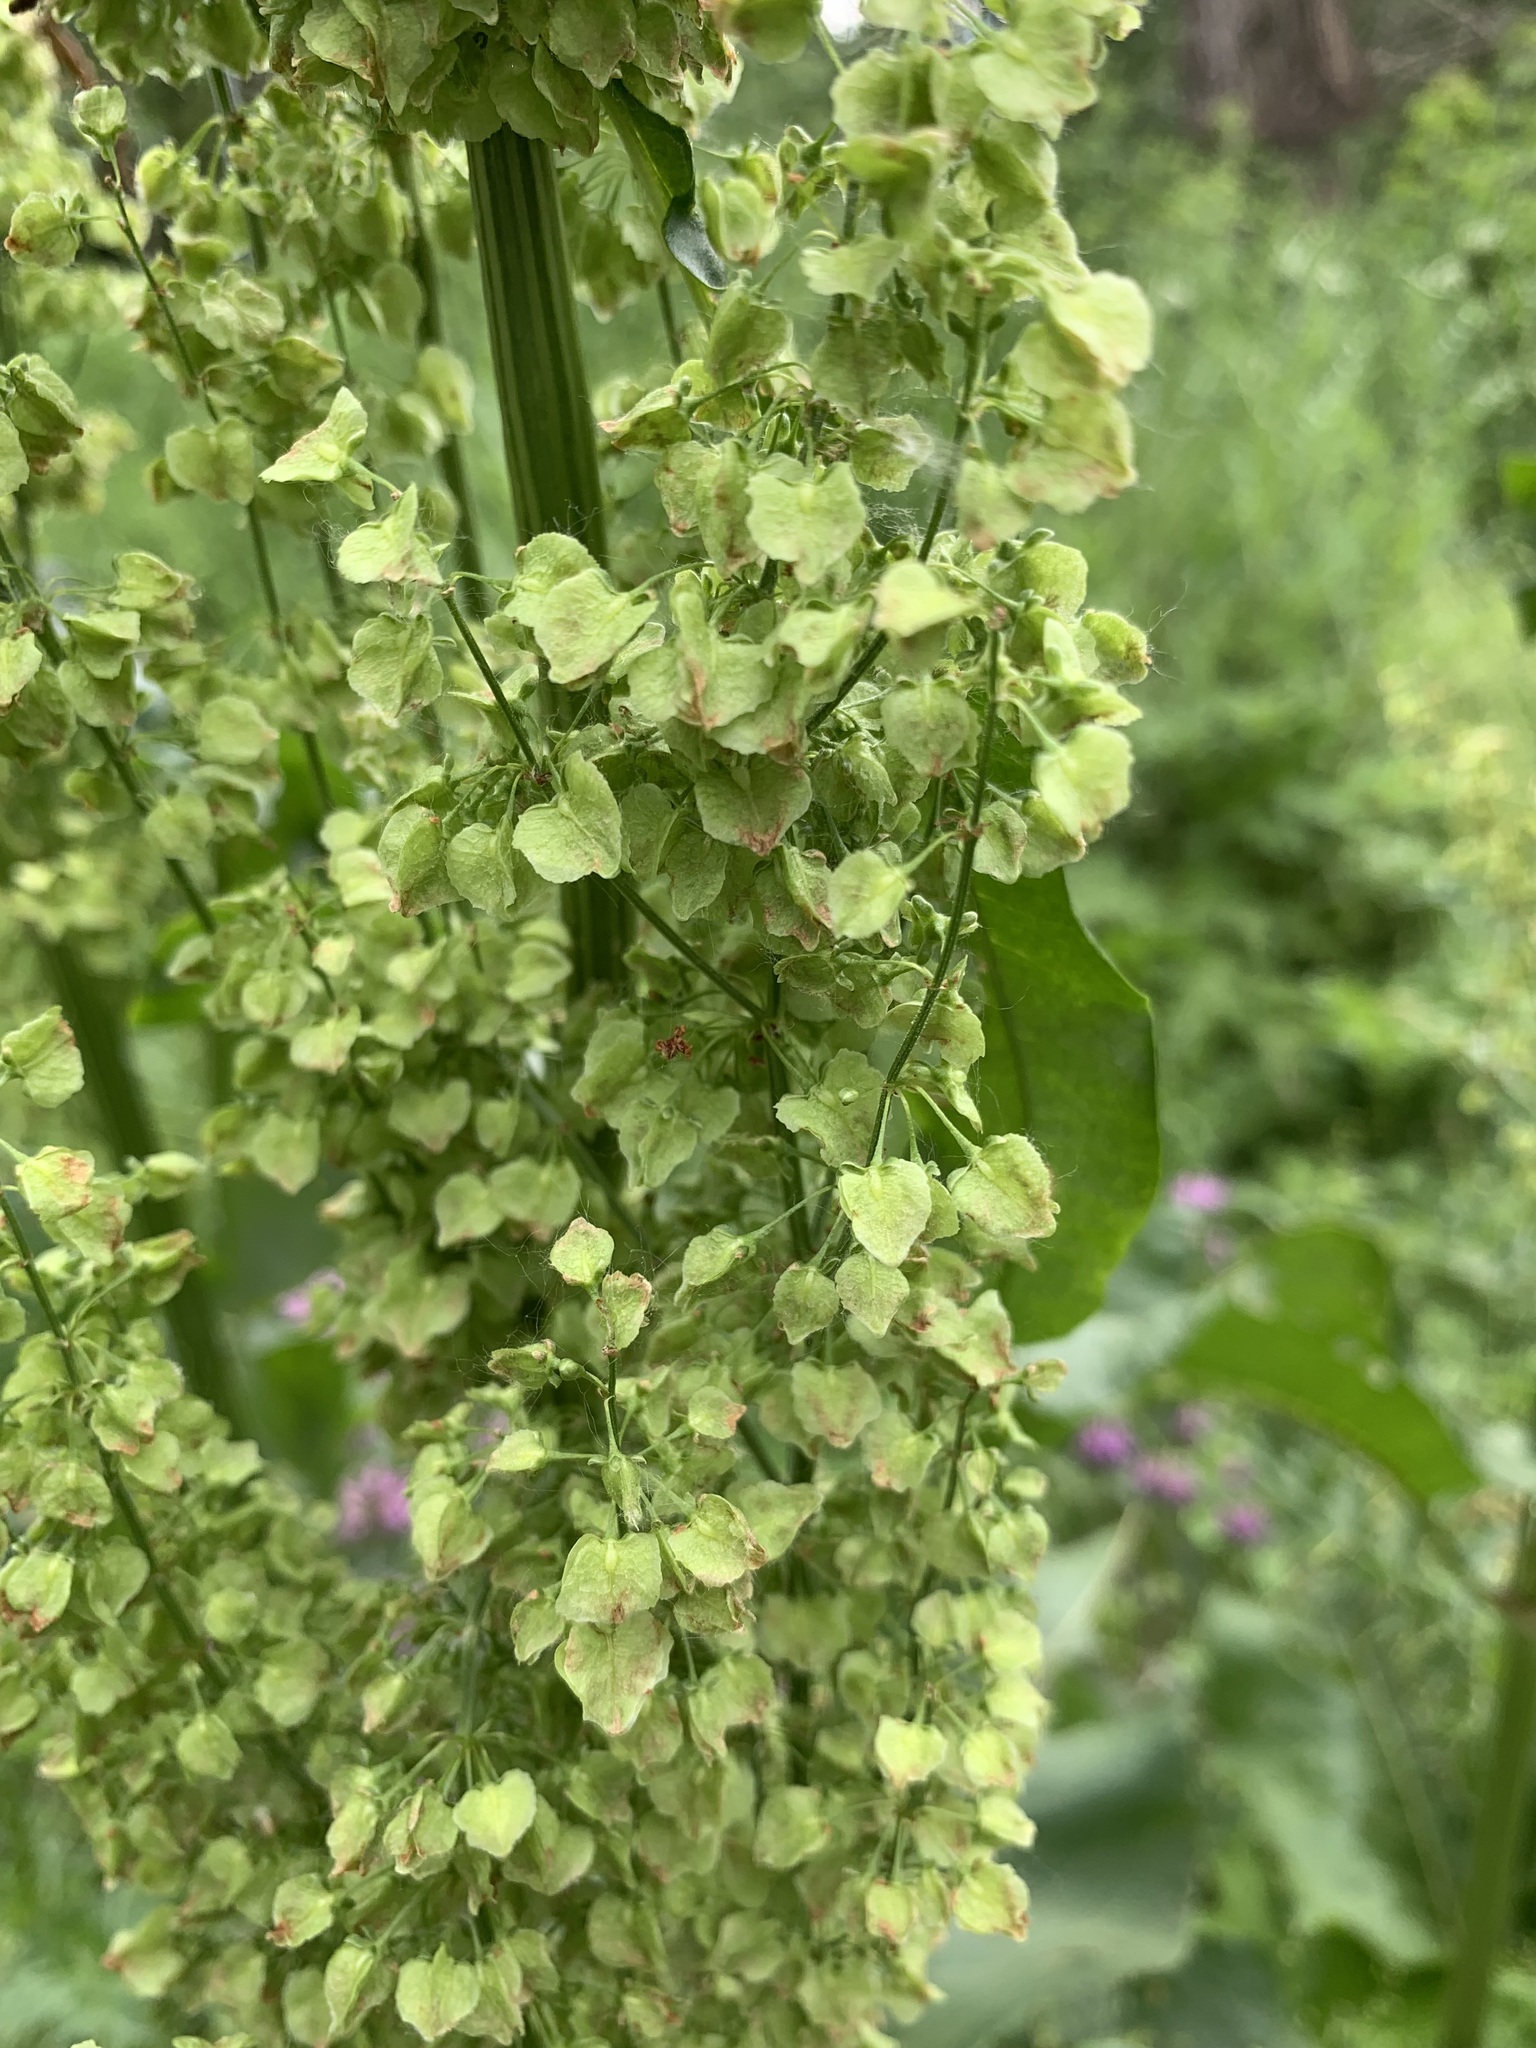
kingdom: Plantae
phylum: Tracheophyta
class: Magnoliopsida
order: Caryophyllales
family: Polygonaceae
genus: Rumex
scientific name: Rumex confertus
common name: Russian dock
